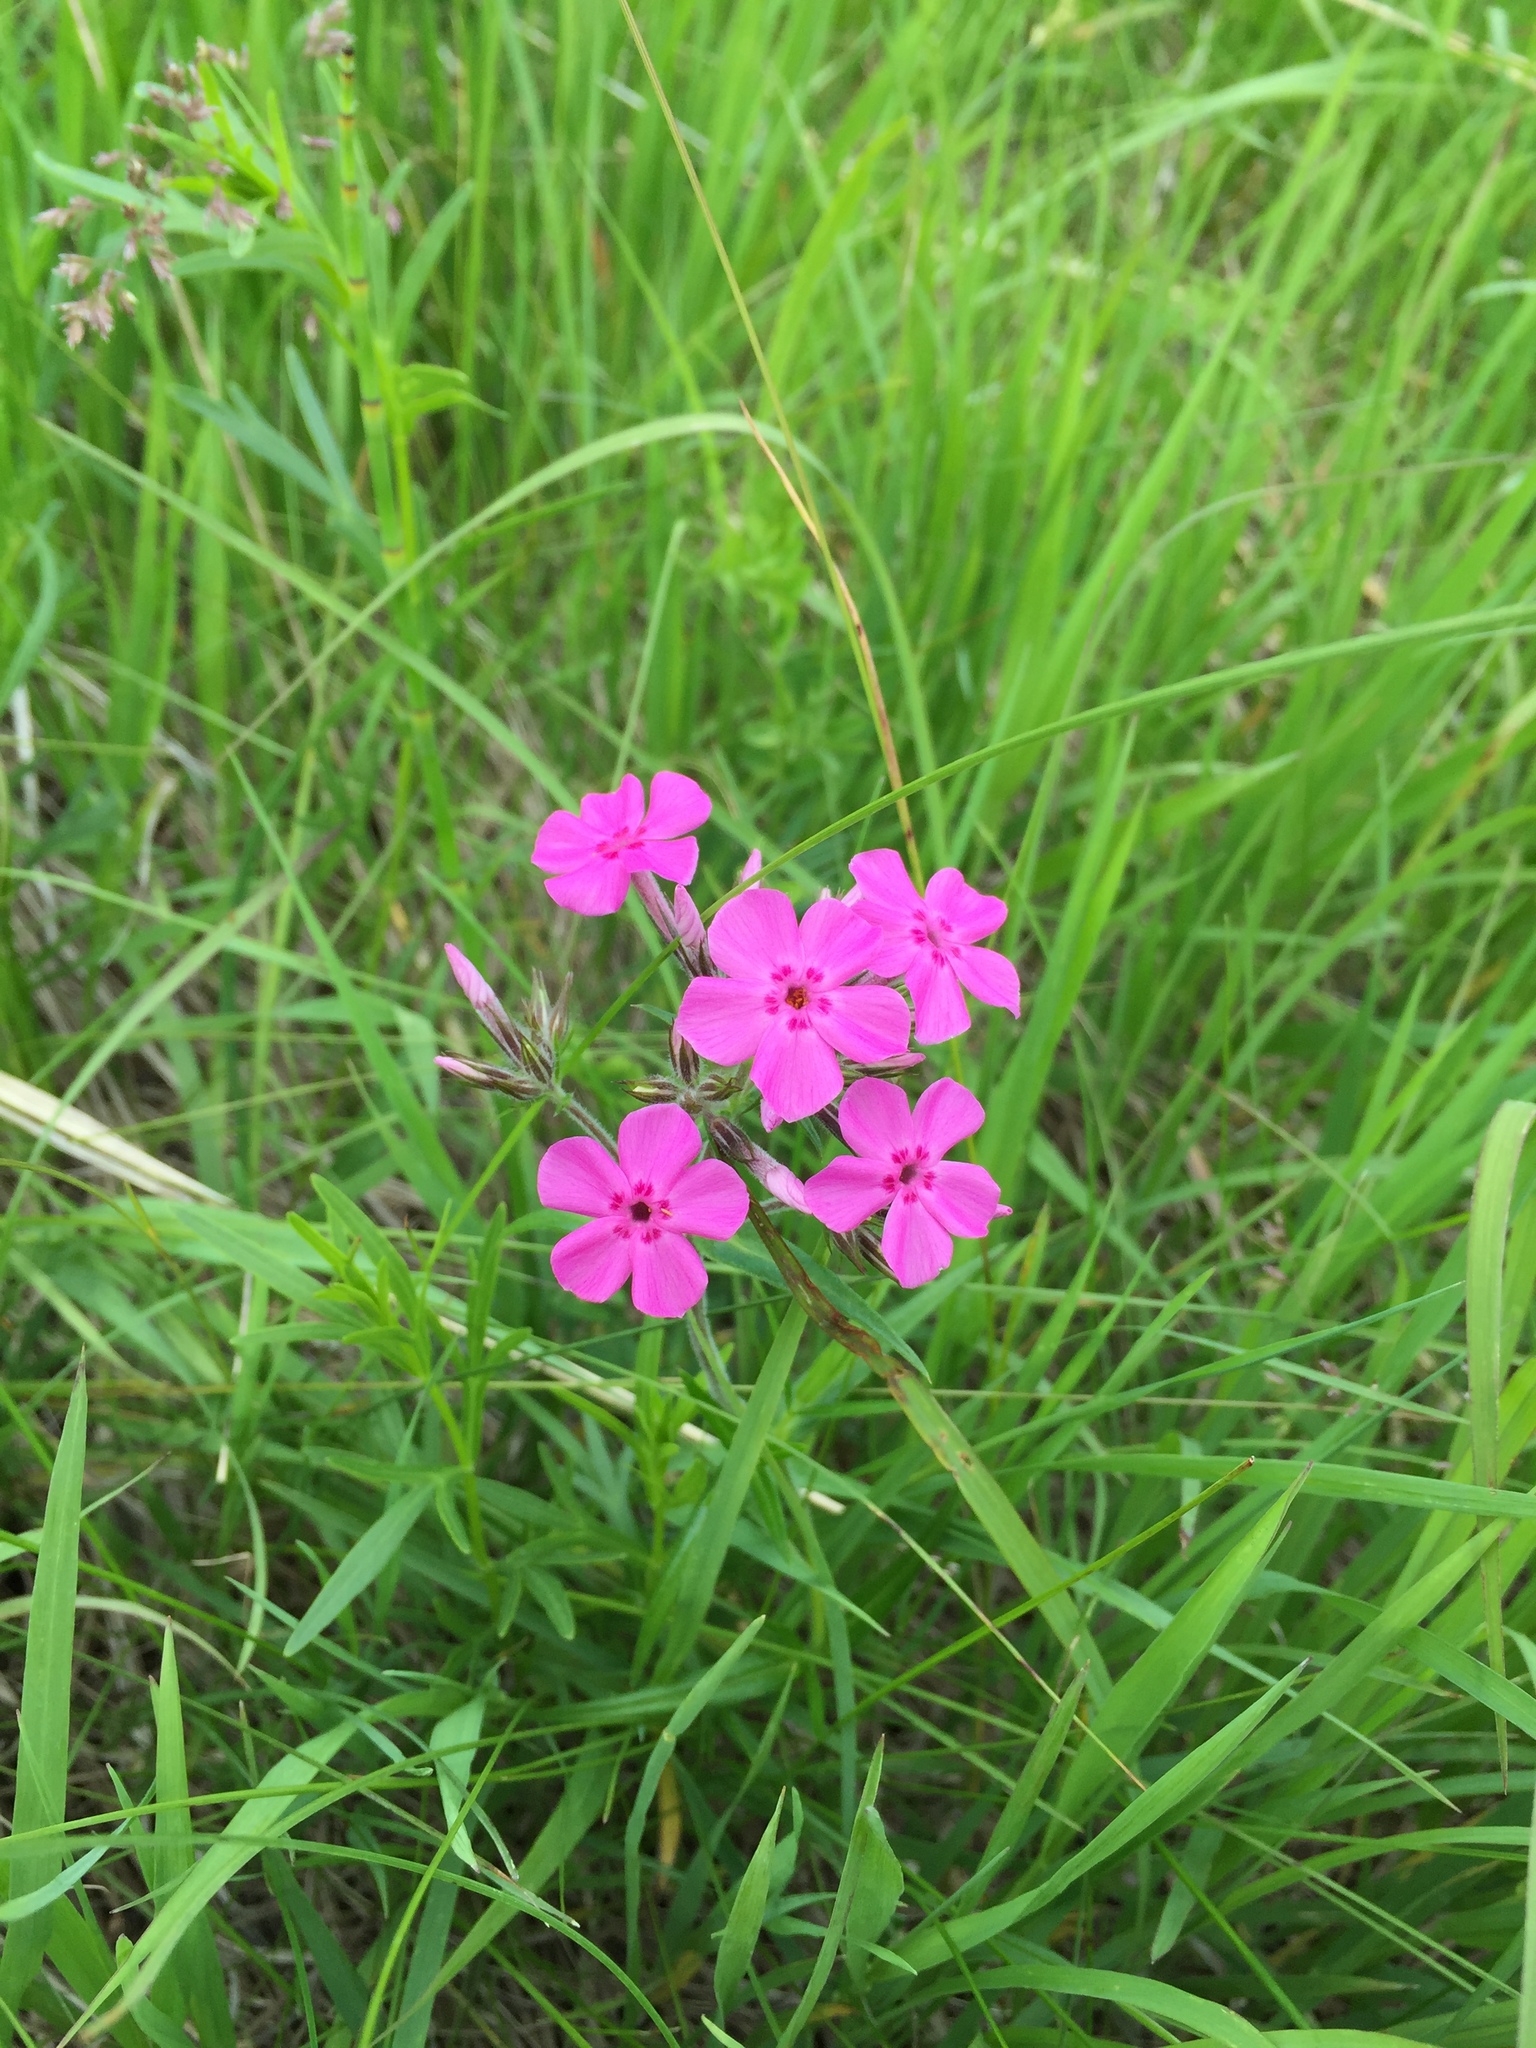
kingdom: Plantae
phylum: Tracheophyta
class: Magnoliopsida
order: Ericales
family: Polemoniaceae
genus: Phlox
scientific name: Phlox pilosa
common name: Prairie phlox
